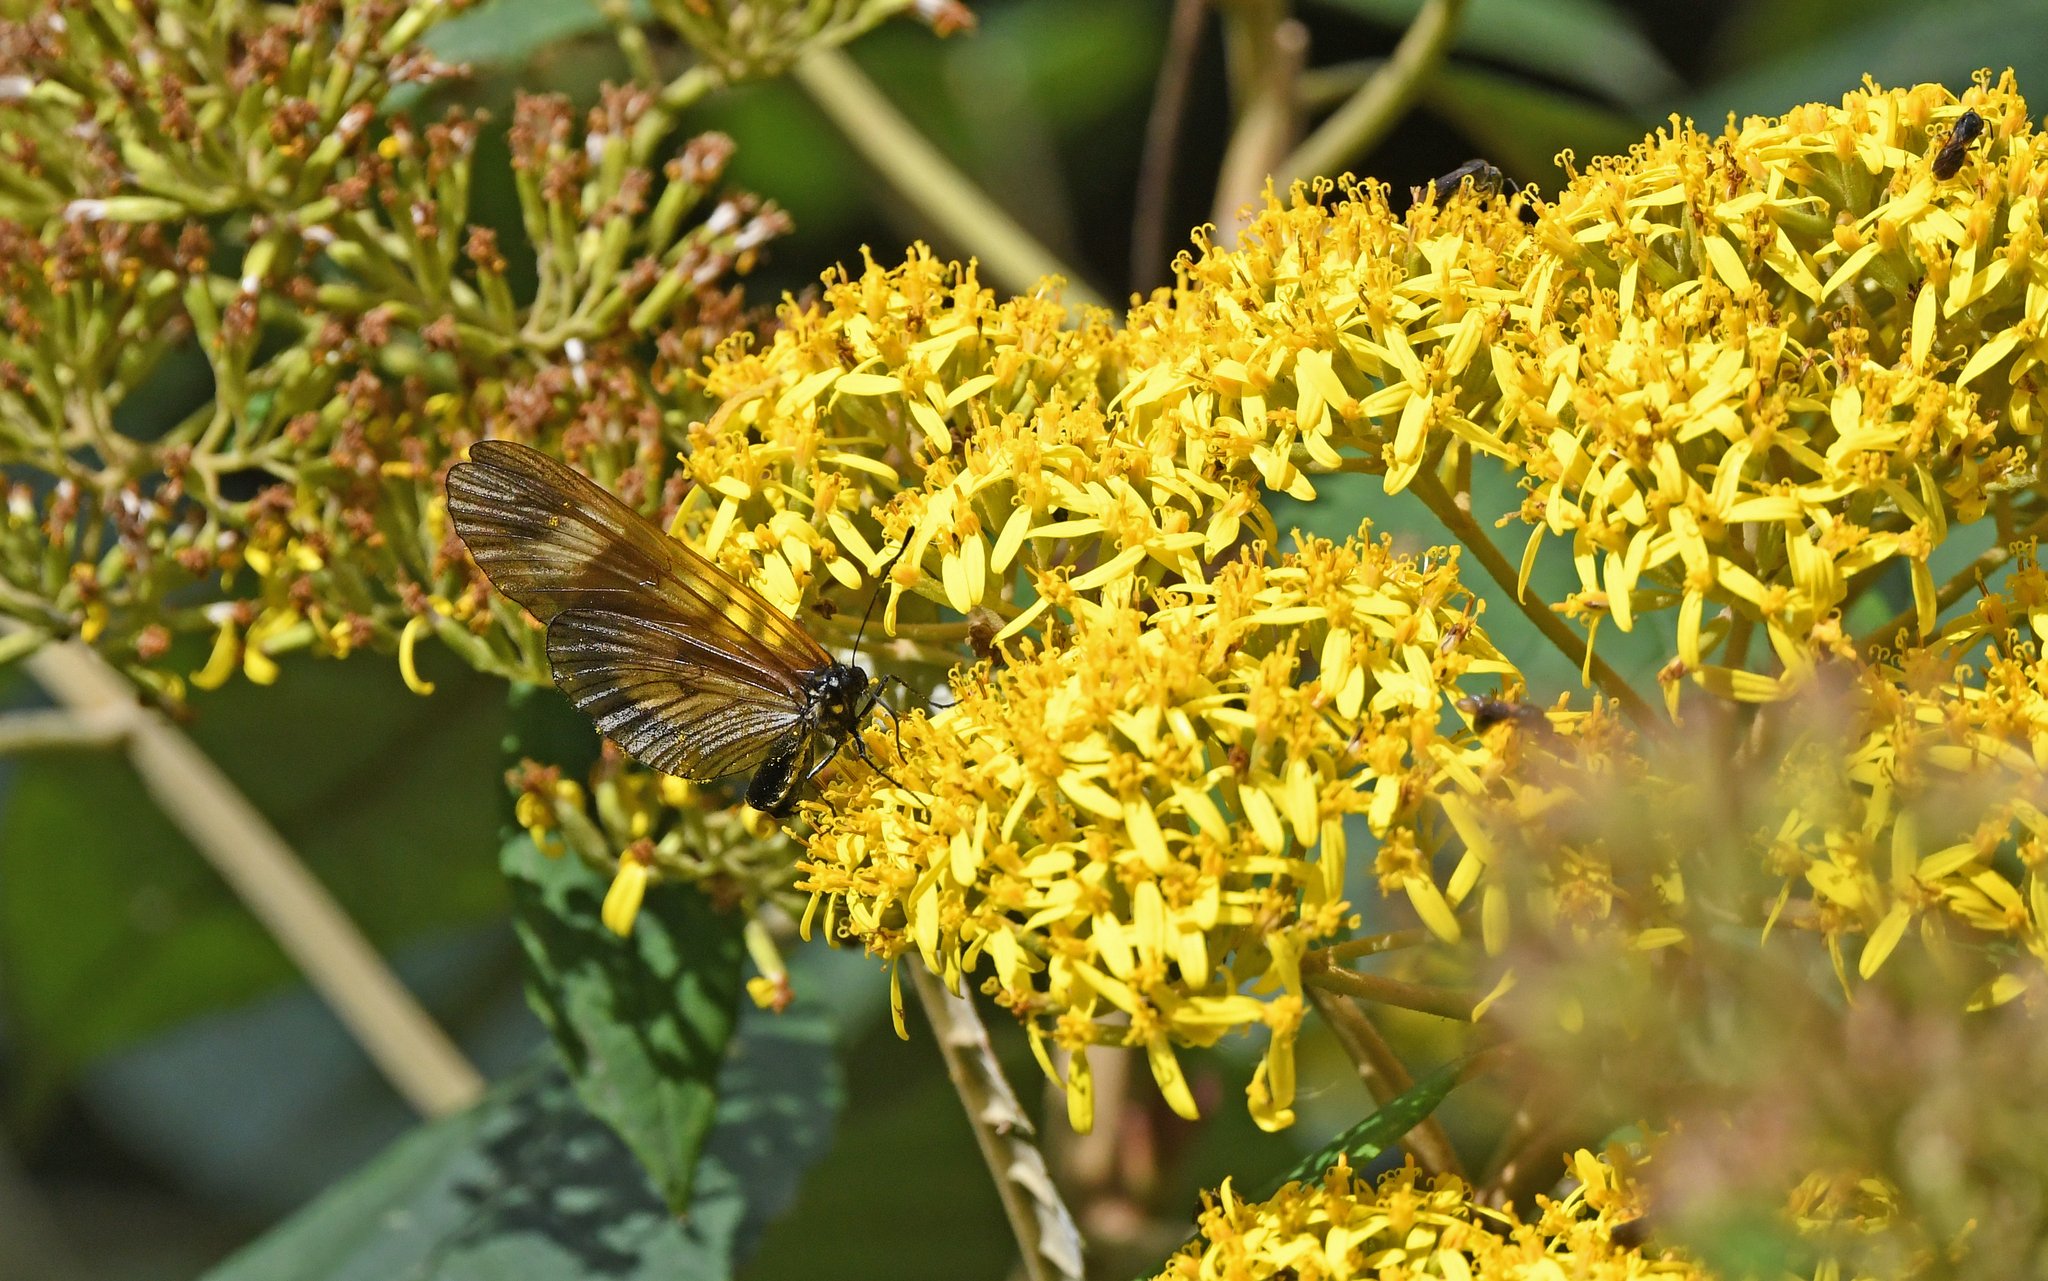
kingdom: Animalia
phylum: Arthropoda
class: Insecta
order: Lepidoptera
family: Nymphalidae
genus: Actinote
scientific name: Actinote negra
